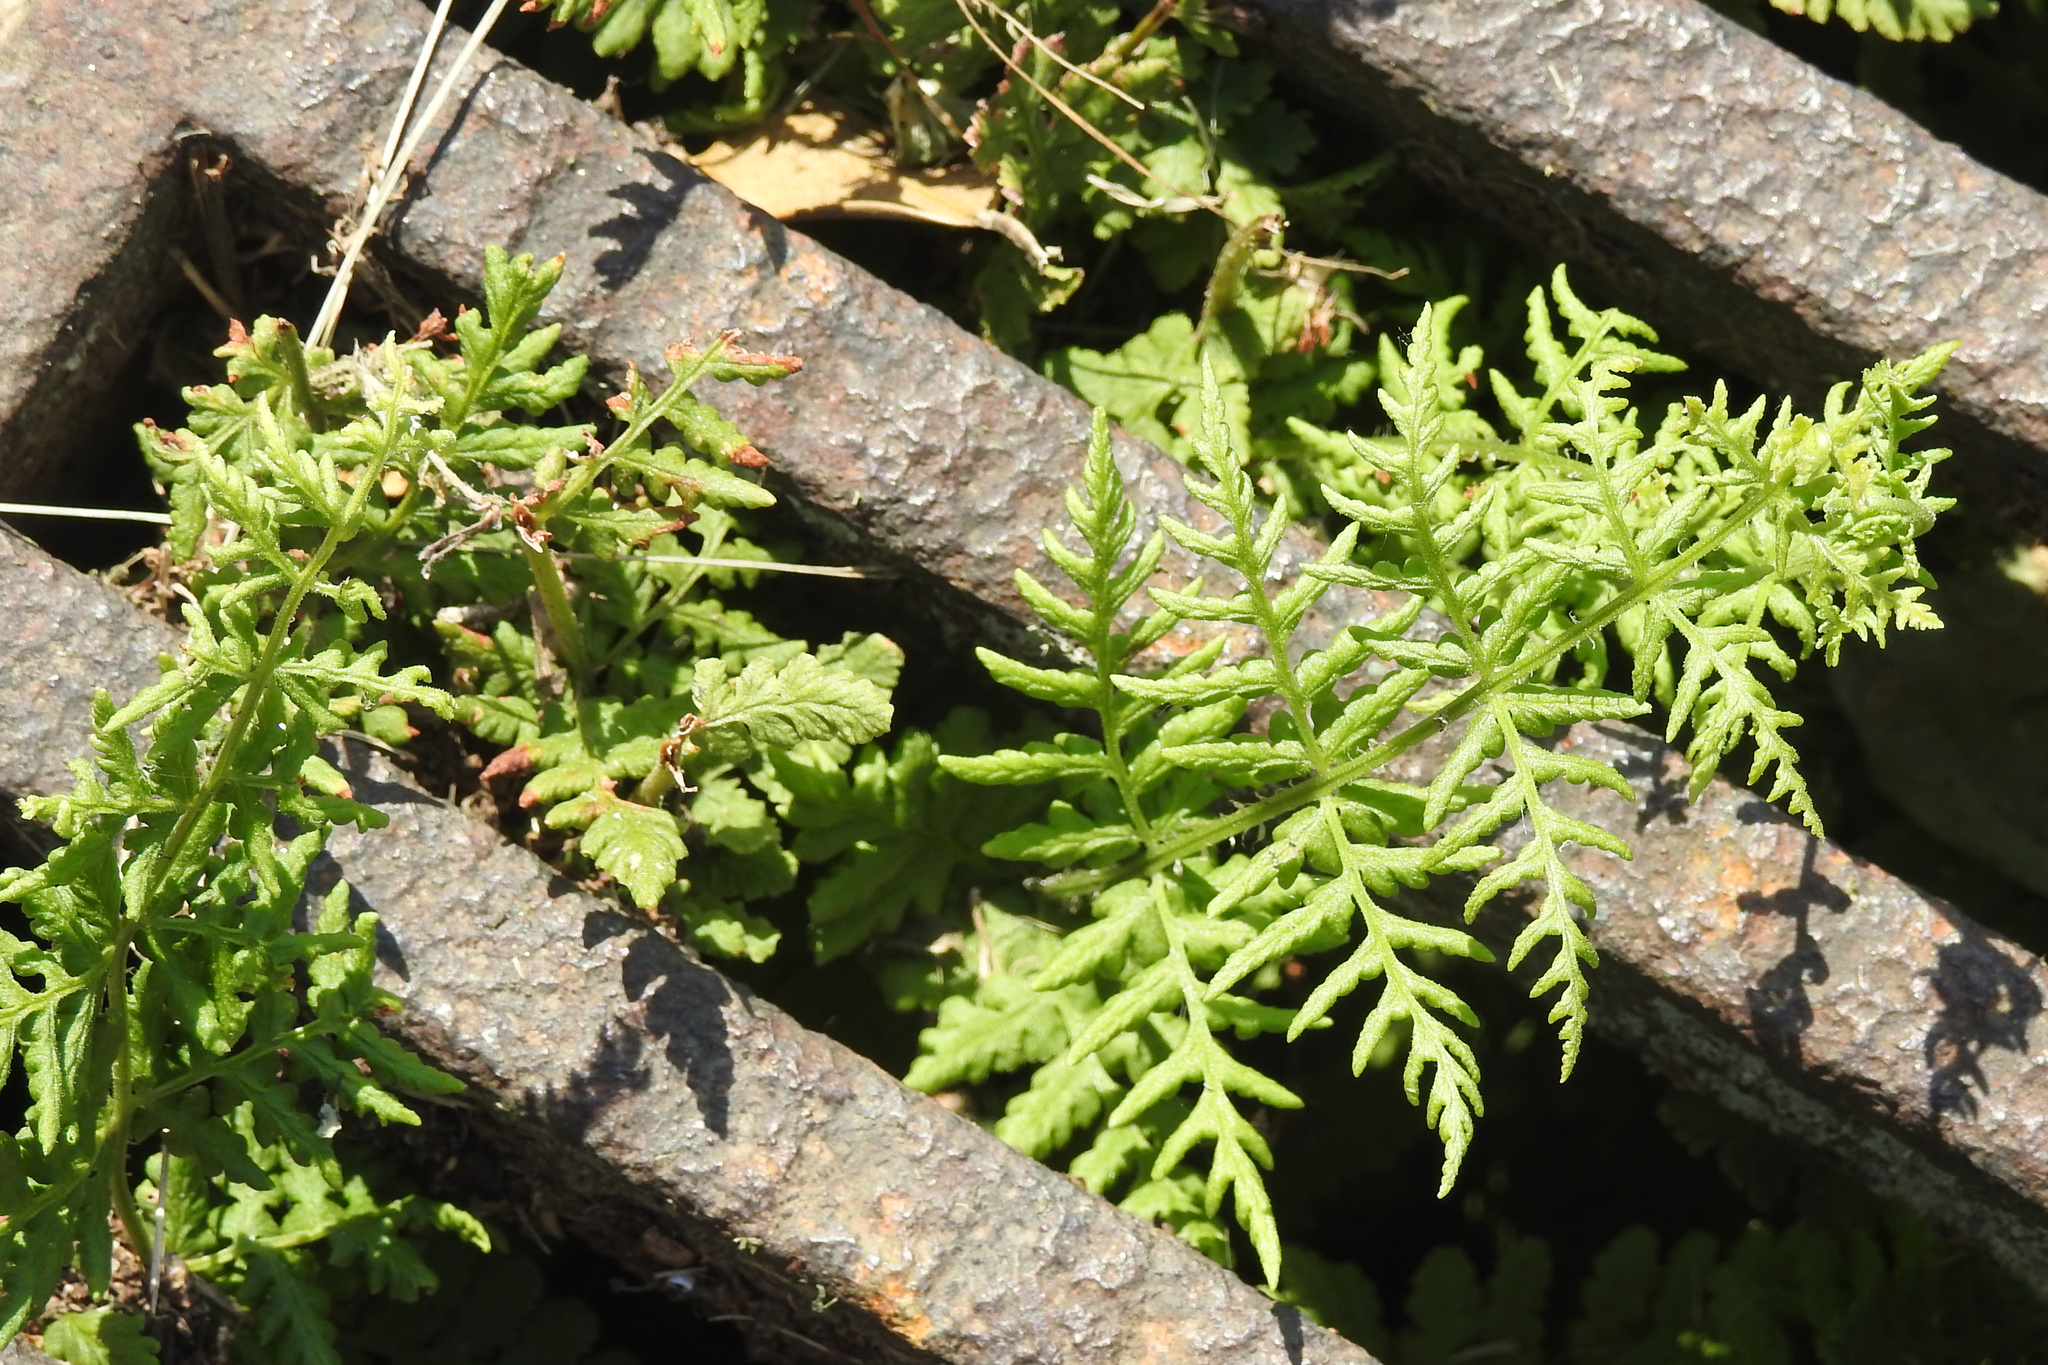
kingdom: Plantae
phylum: Tracheophyta
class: Polypodiopsida
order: Polypodiales
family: Woodsiaceae
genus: Physematium
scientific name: Physematium obtusum
